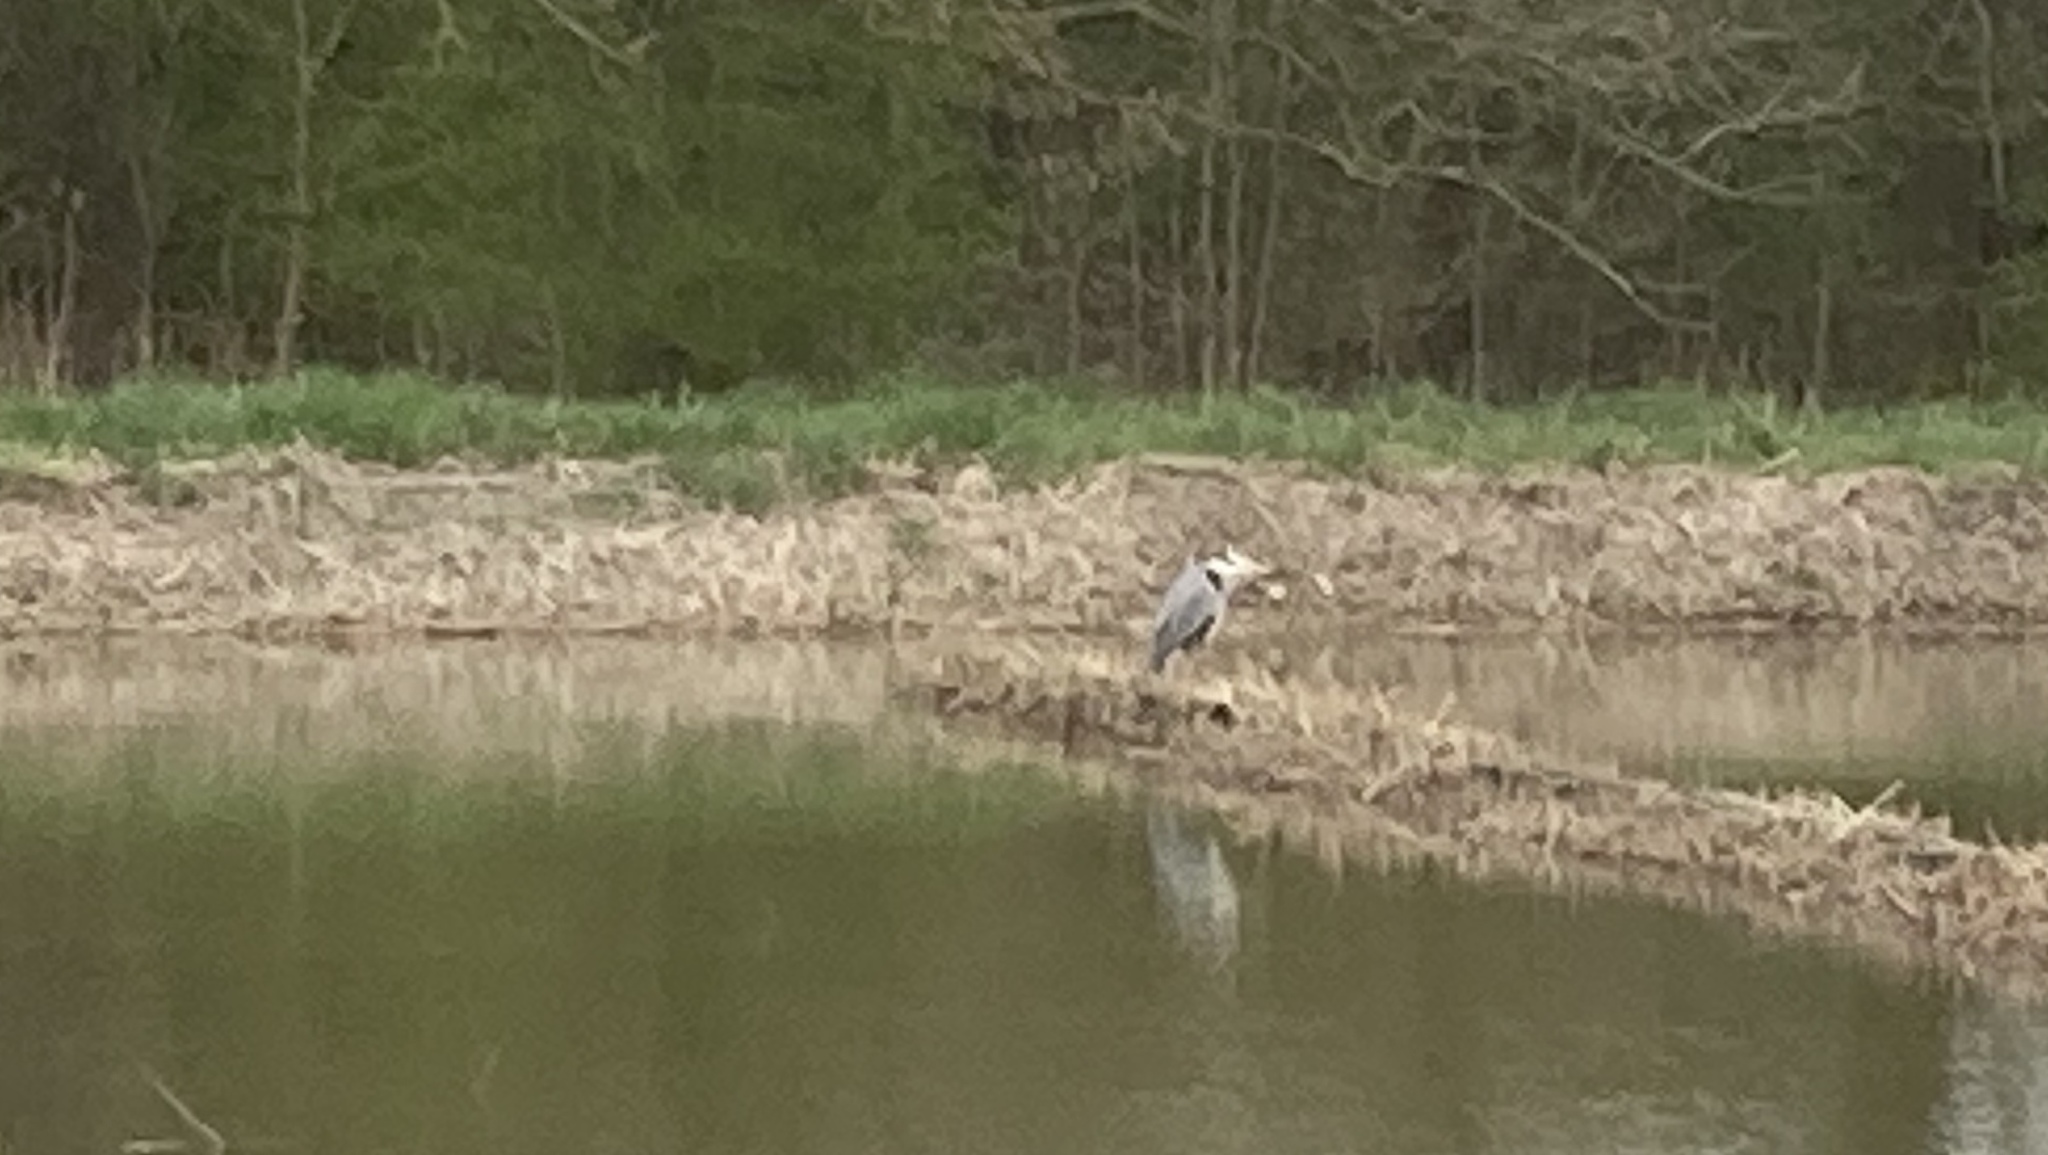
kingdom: Animalia
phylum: Chordata
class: Aves
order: Pelecaniformes
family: Ardeidae
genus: Ardea
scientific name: Ardea cinerea
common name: Grey heron
